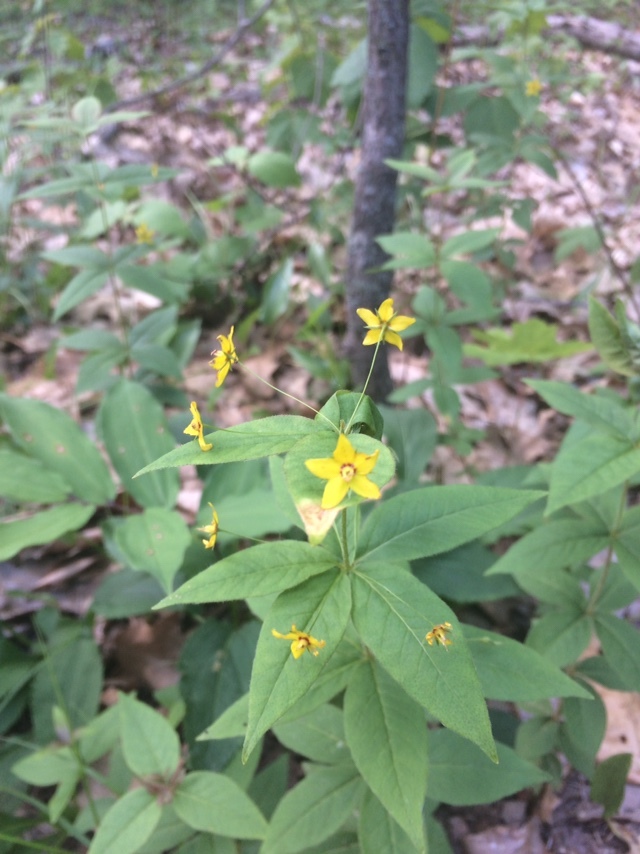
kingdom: Plantae
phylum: Tracheophyta
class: Magnoliopsida
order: Ericales
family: Primulaceae
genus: Lysimachia
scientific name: Lysimachia quadrifolia
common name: Whorled loosestrife
